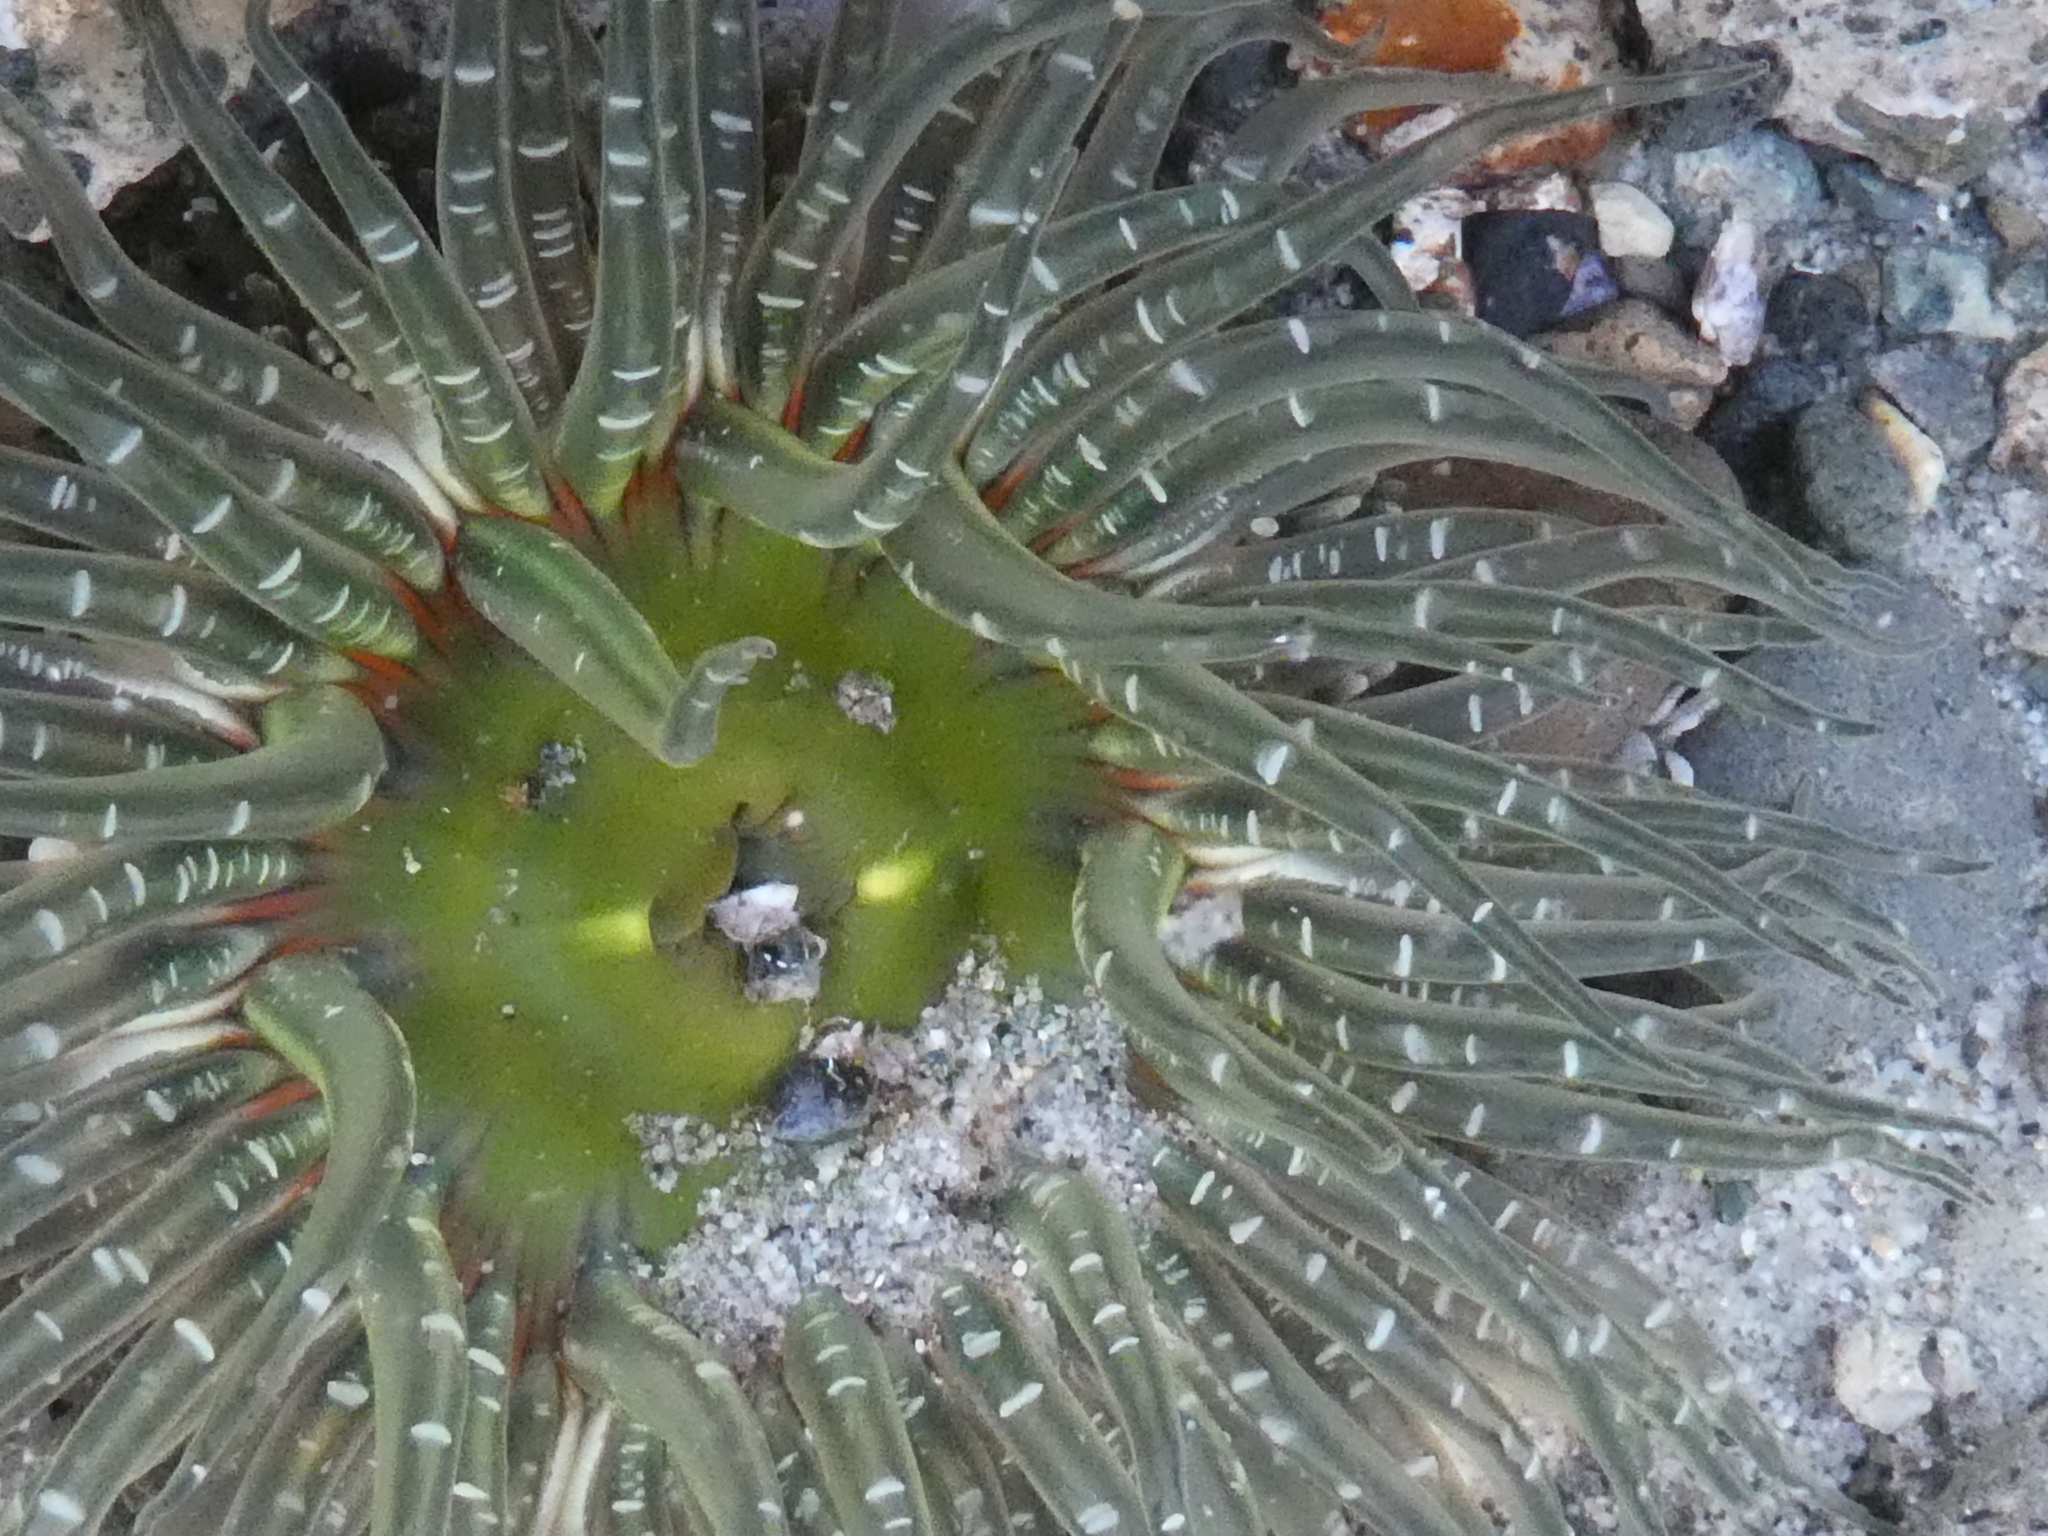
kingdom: Animalia
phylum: Cnidaria
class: Anthozoa
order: Actiniaria
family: Actiniidae
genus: Anthopleura
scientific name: Anthopleura artemisia
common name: Buried sea anemone
